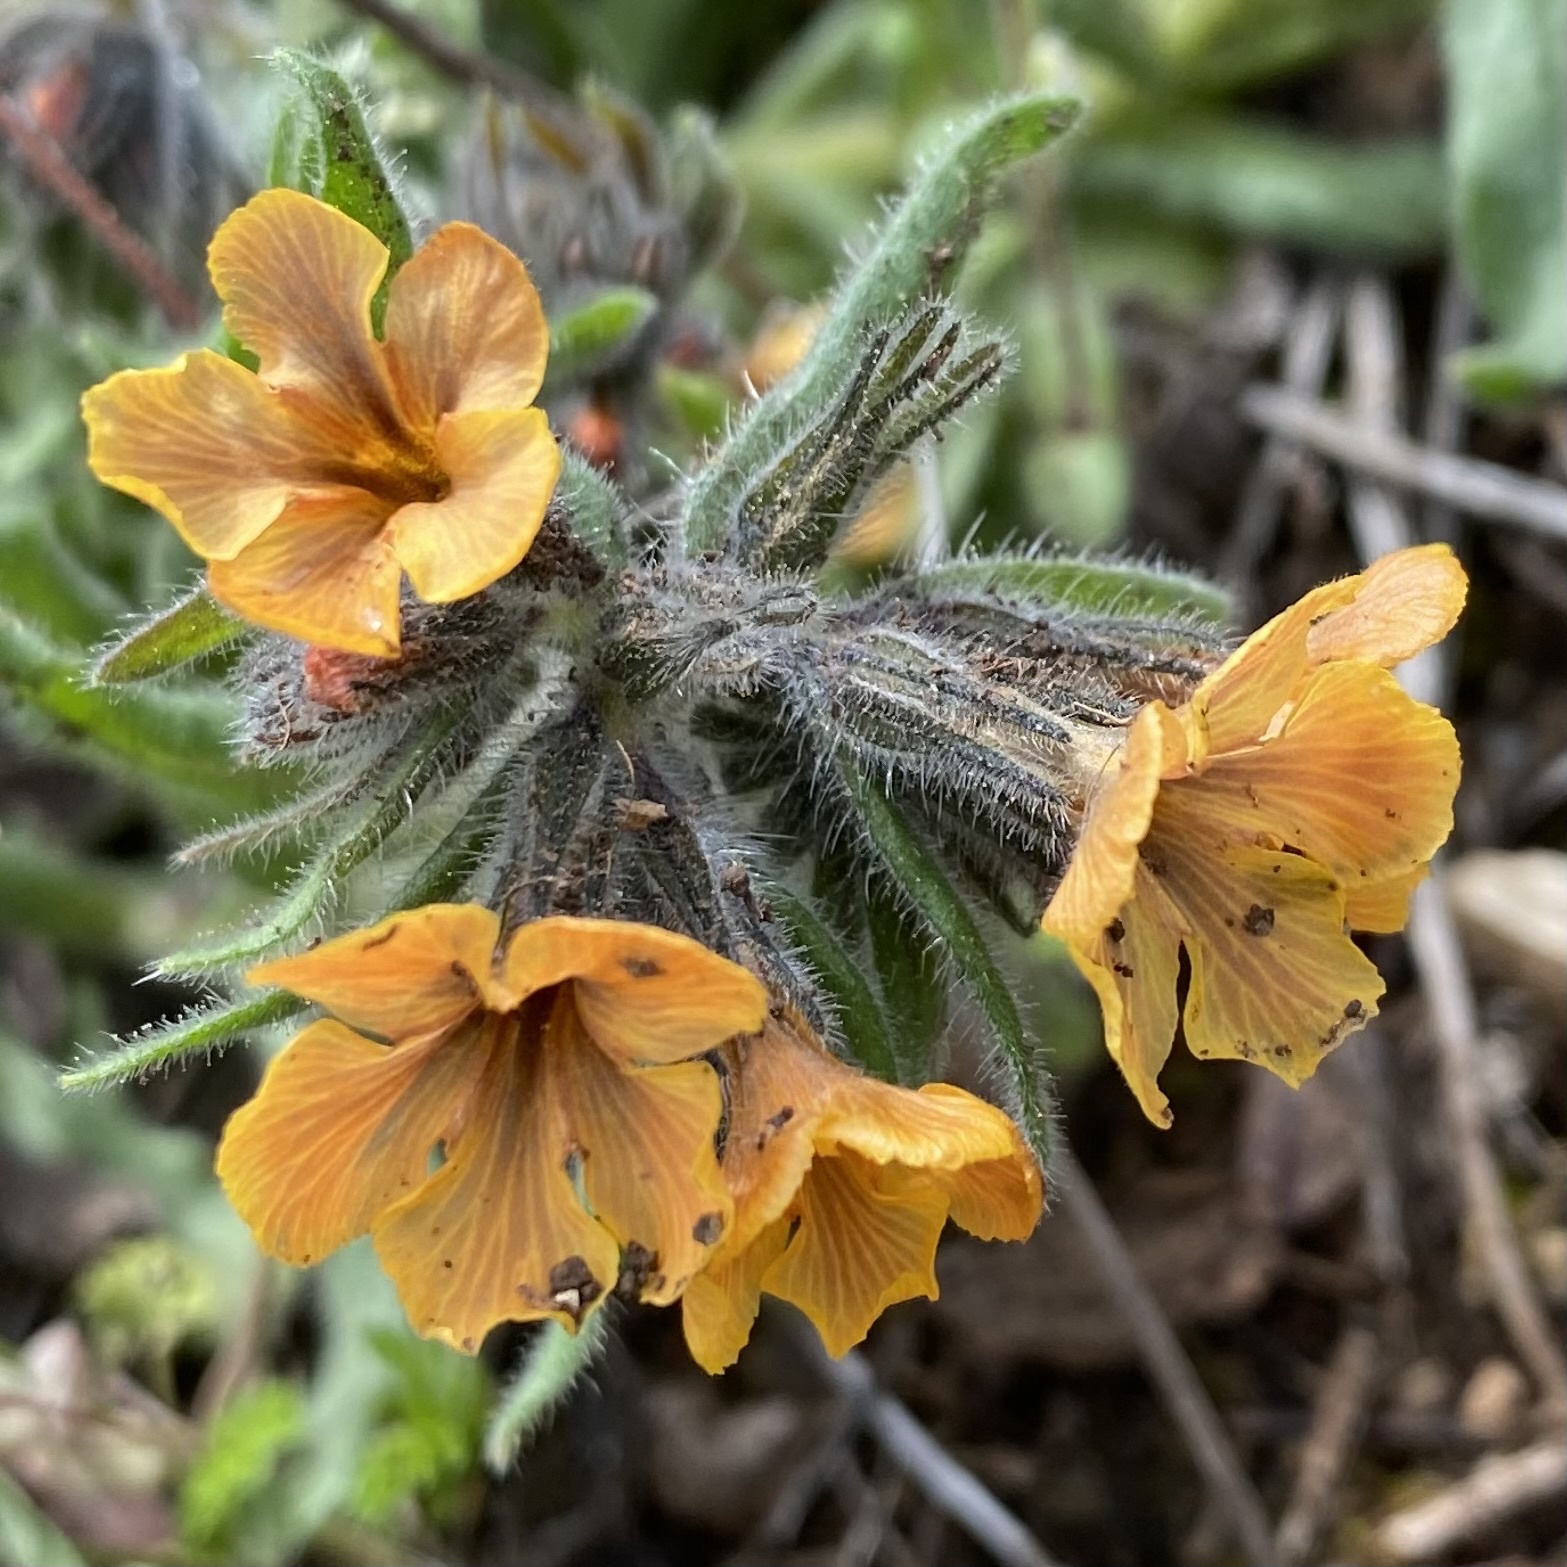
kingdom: Plantae
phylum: Tracheophyta
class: Magnoliopsida
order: Boraginales
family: Boraginaceae
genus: Alkanna
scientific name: Alkanna stribrnyi
